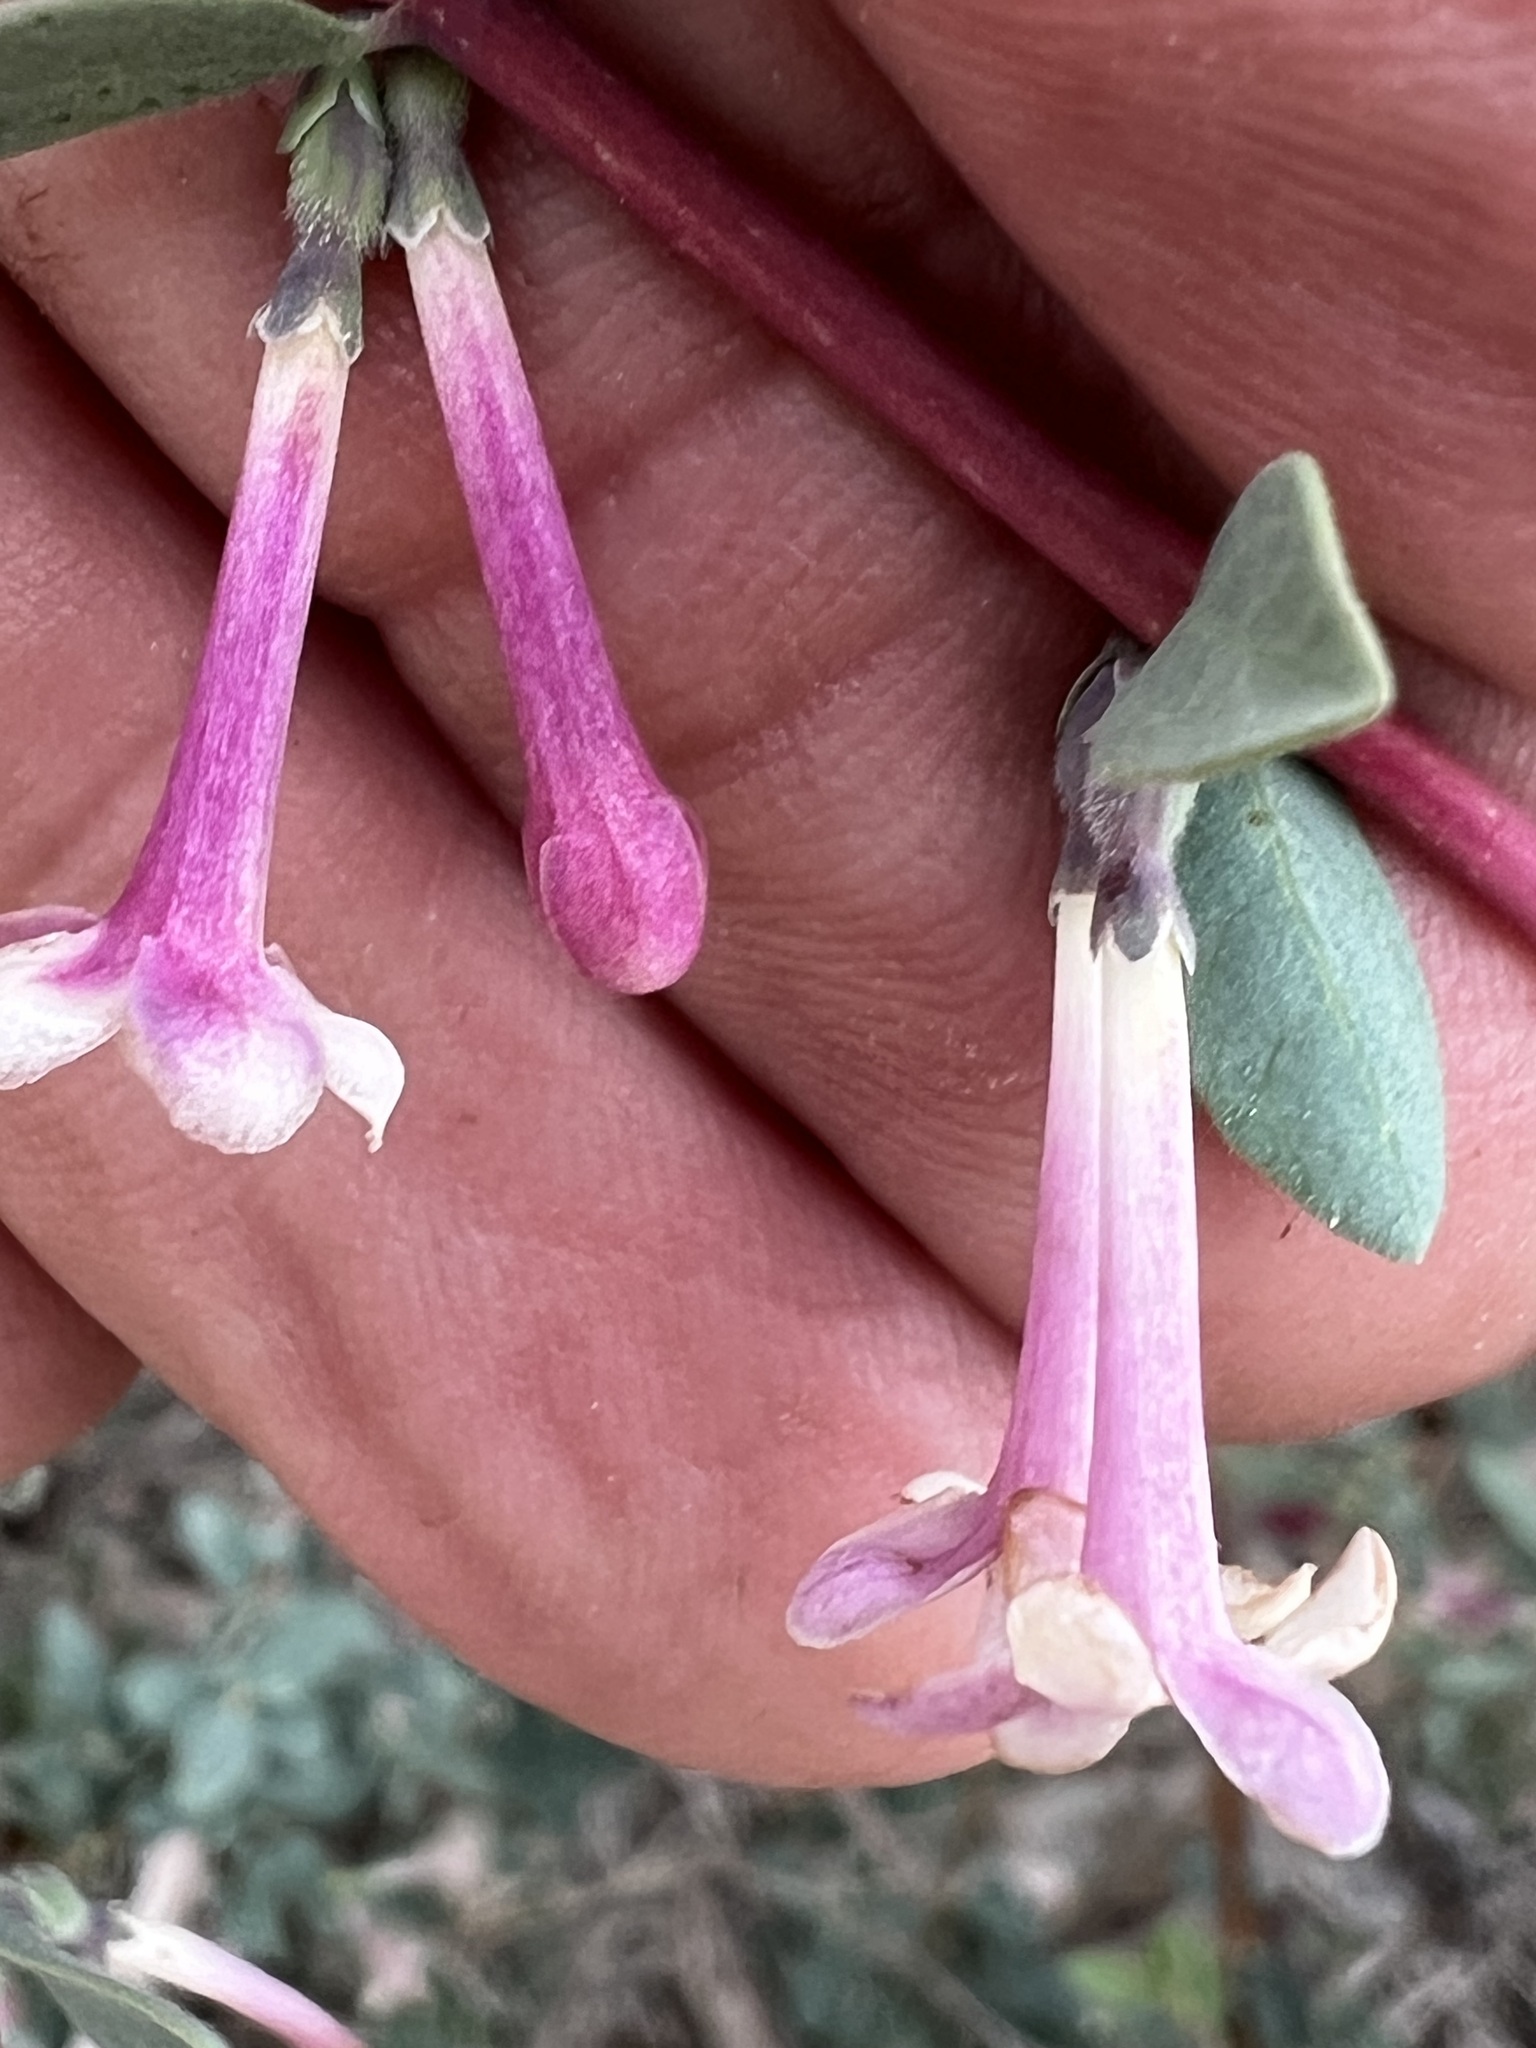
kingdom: Plantae
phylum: Tracheophyta
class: Magnoliopsida
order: Dipsacales
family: Caprifoliaceae
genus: Symphoricarpos
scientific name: Symphoricarpos longiflorus
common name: Fragrant snowberry
